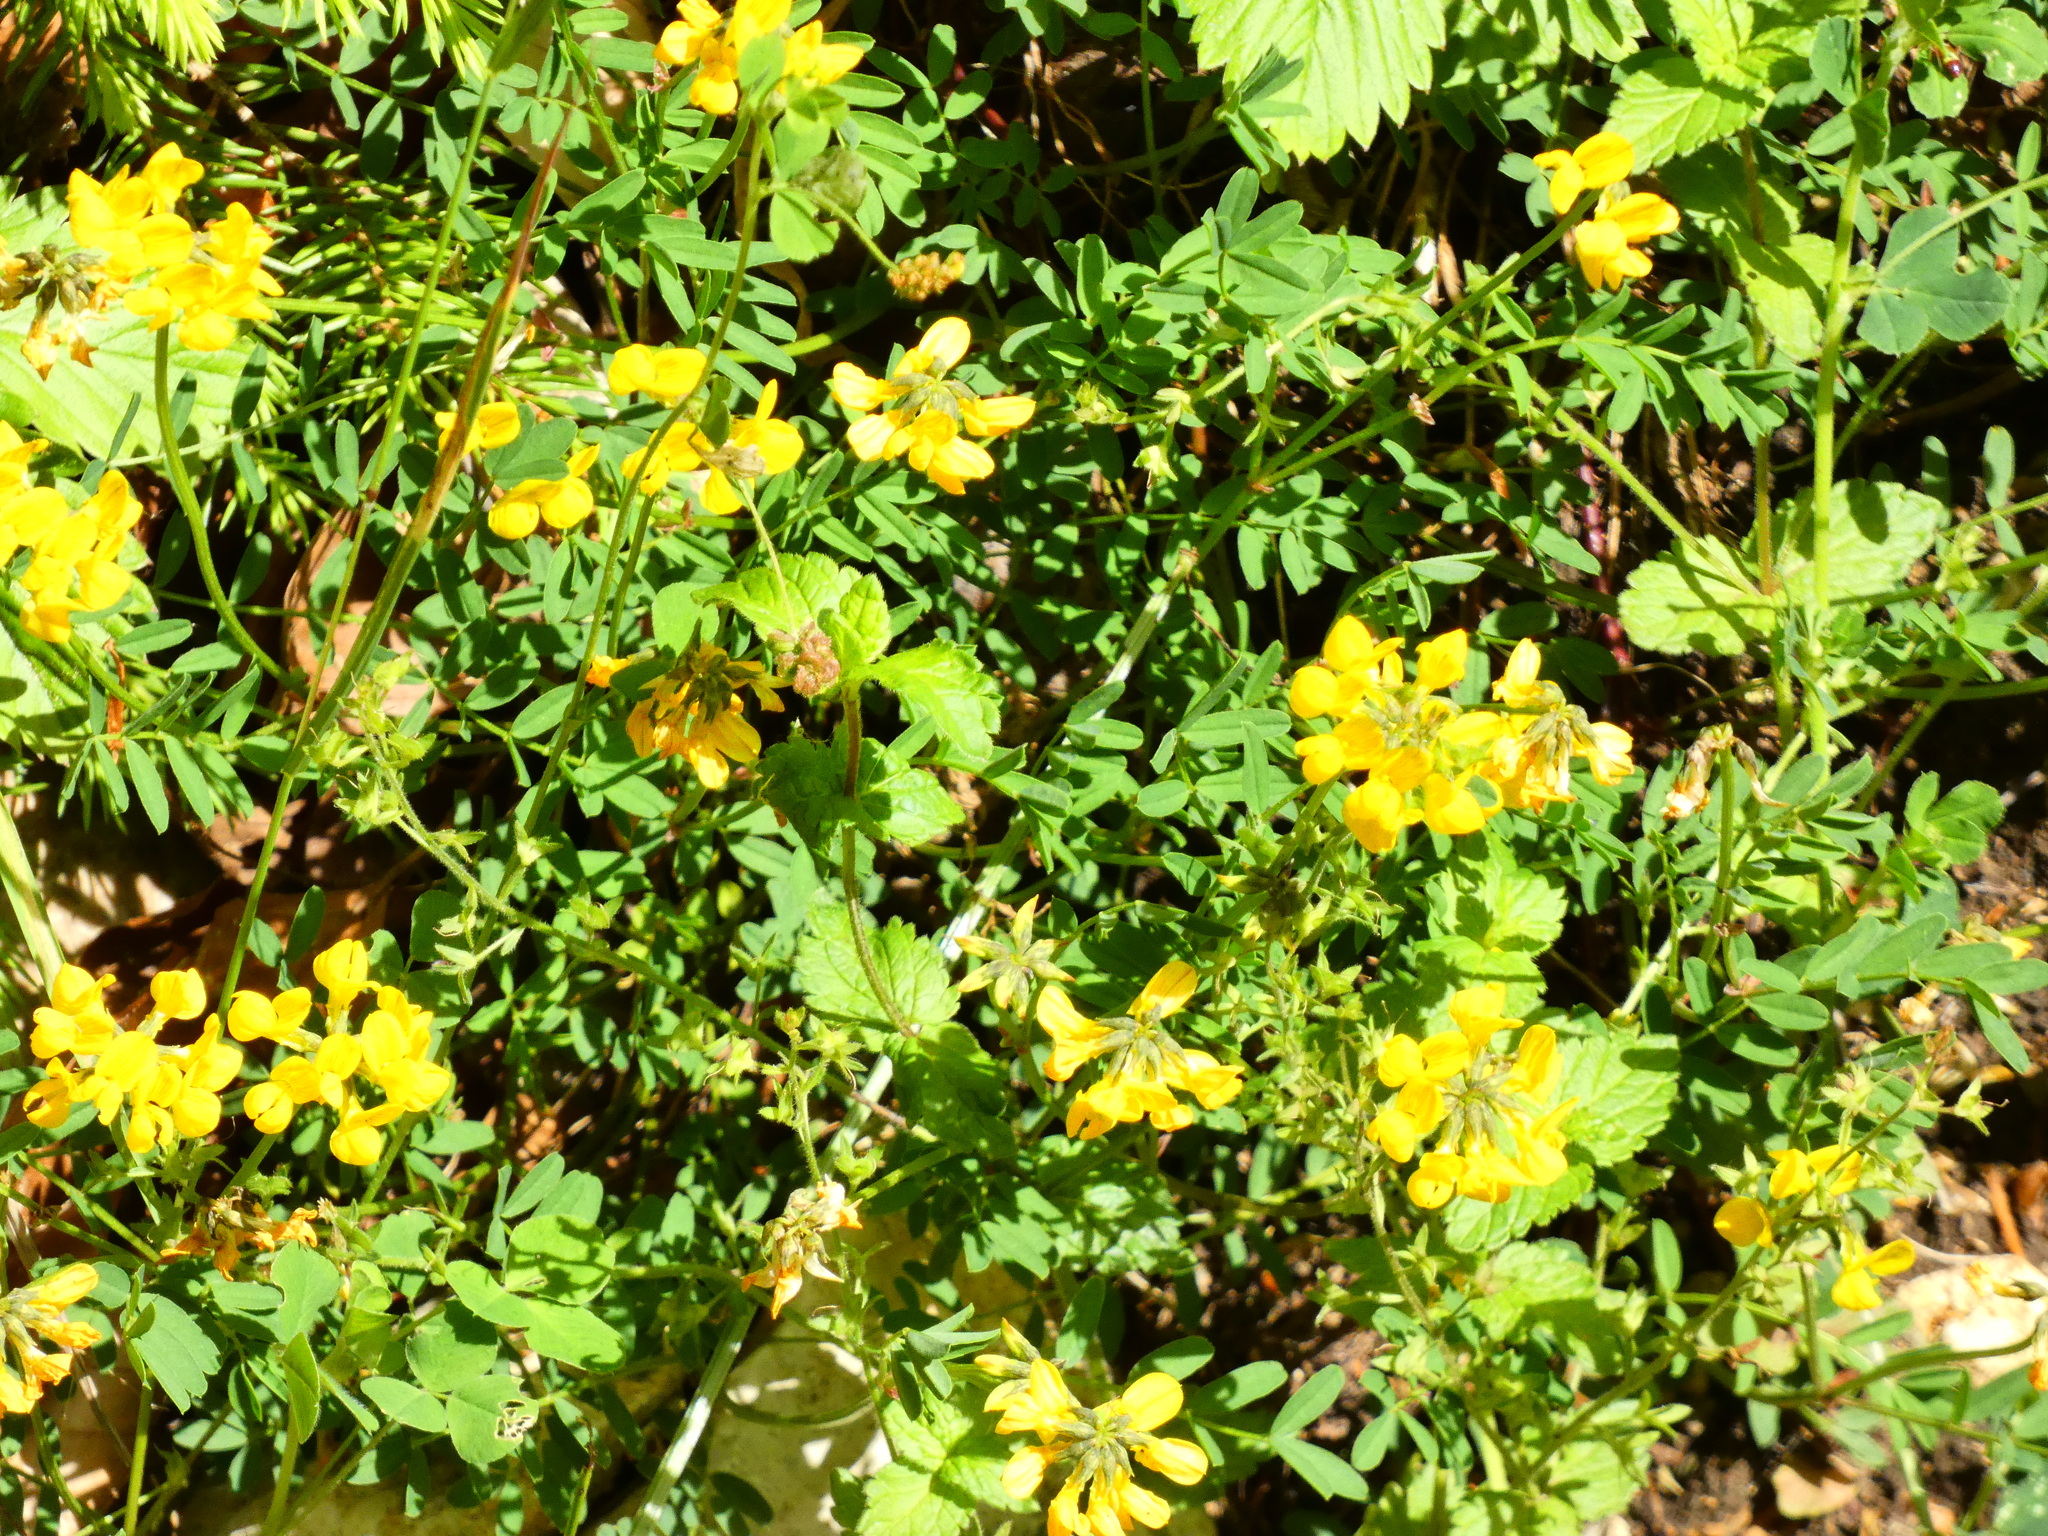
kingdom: Plantae
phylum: Tracheophyta
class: Magnoliopsida
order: Fabales
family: Fabaceae
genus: Hippocrepis
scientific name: Hippocrepis comosa
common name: Horseshoe vetch
